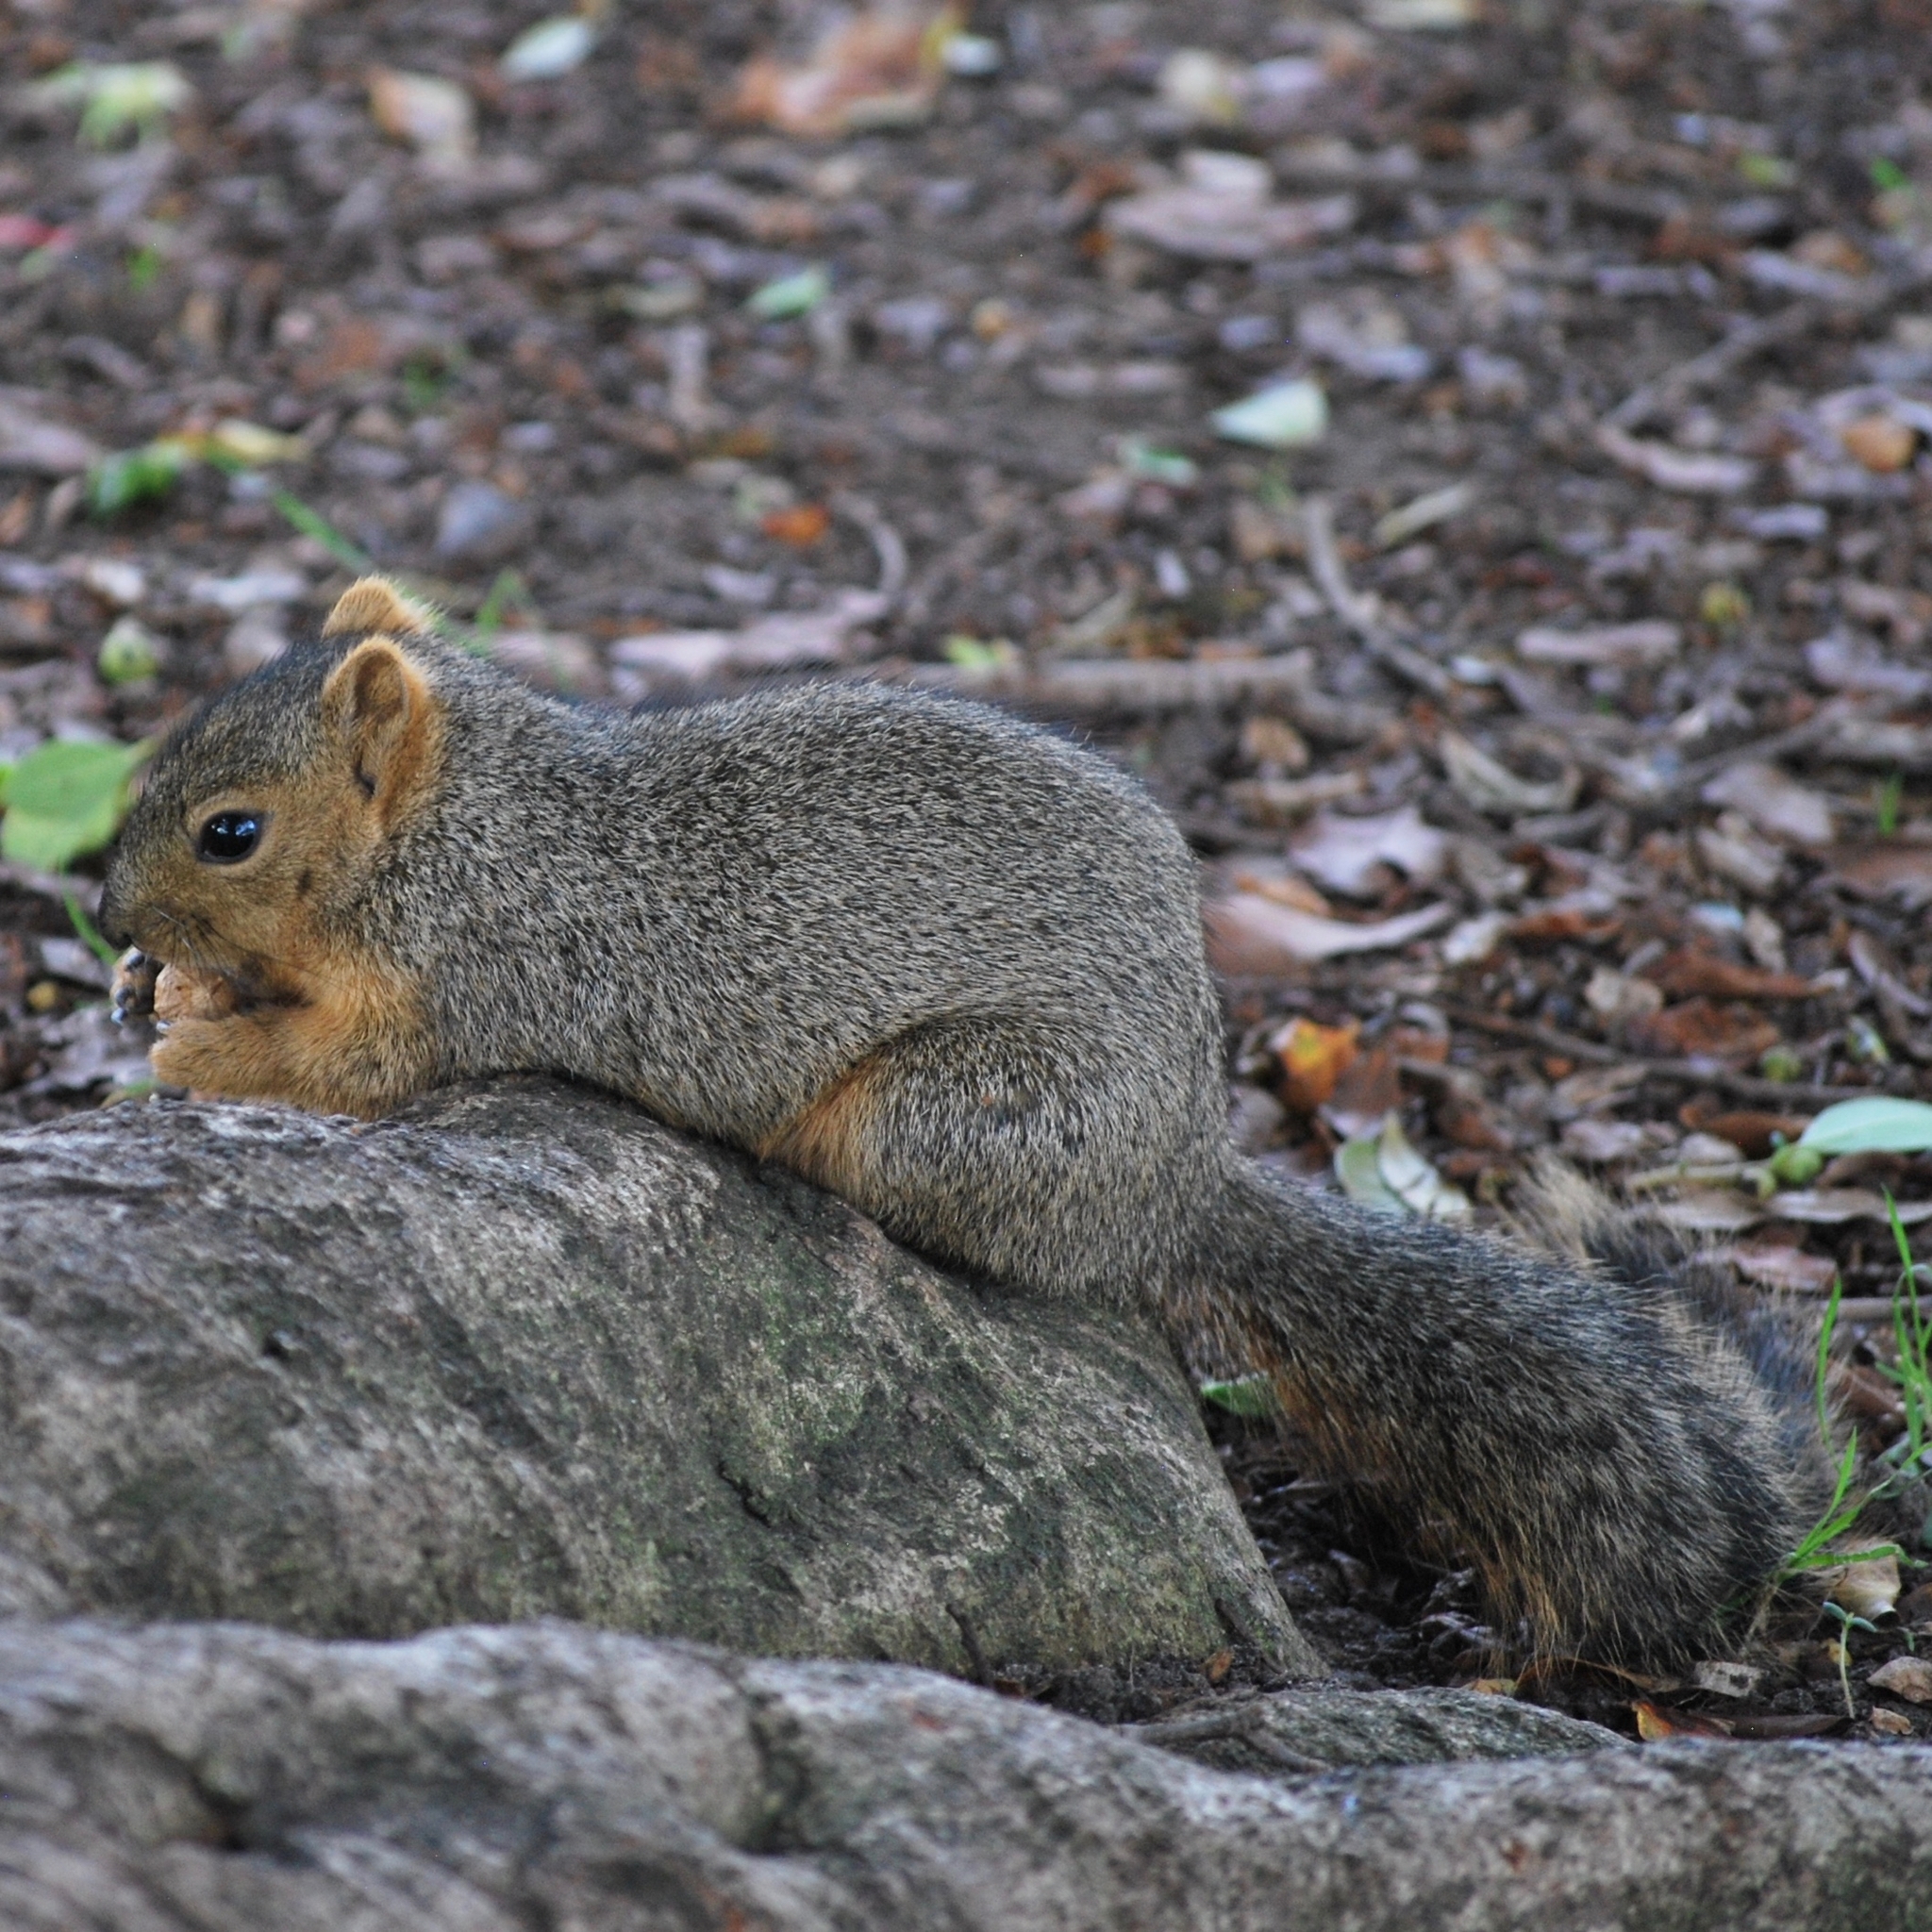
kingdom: Animalia
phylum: Chordata
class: Mammalia
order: Rodentia
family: Sciuridae
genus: Sciurus
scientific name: Sciurus niger
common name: Fox squirrel
